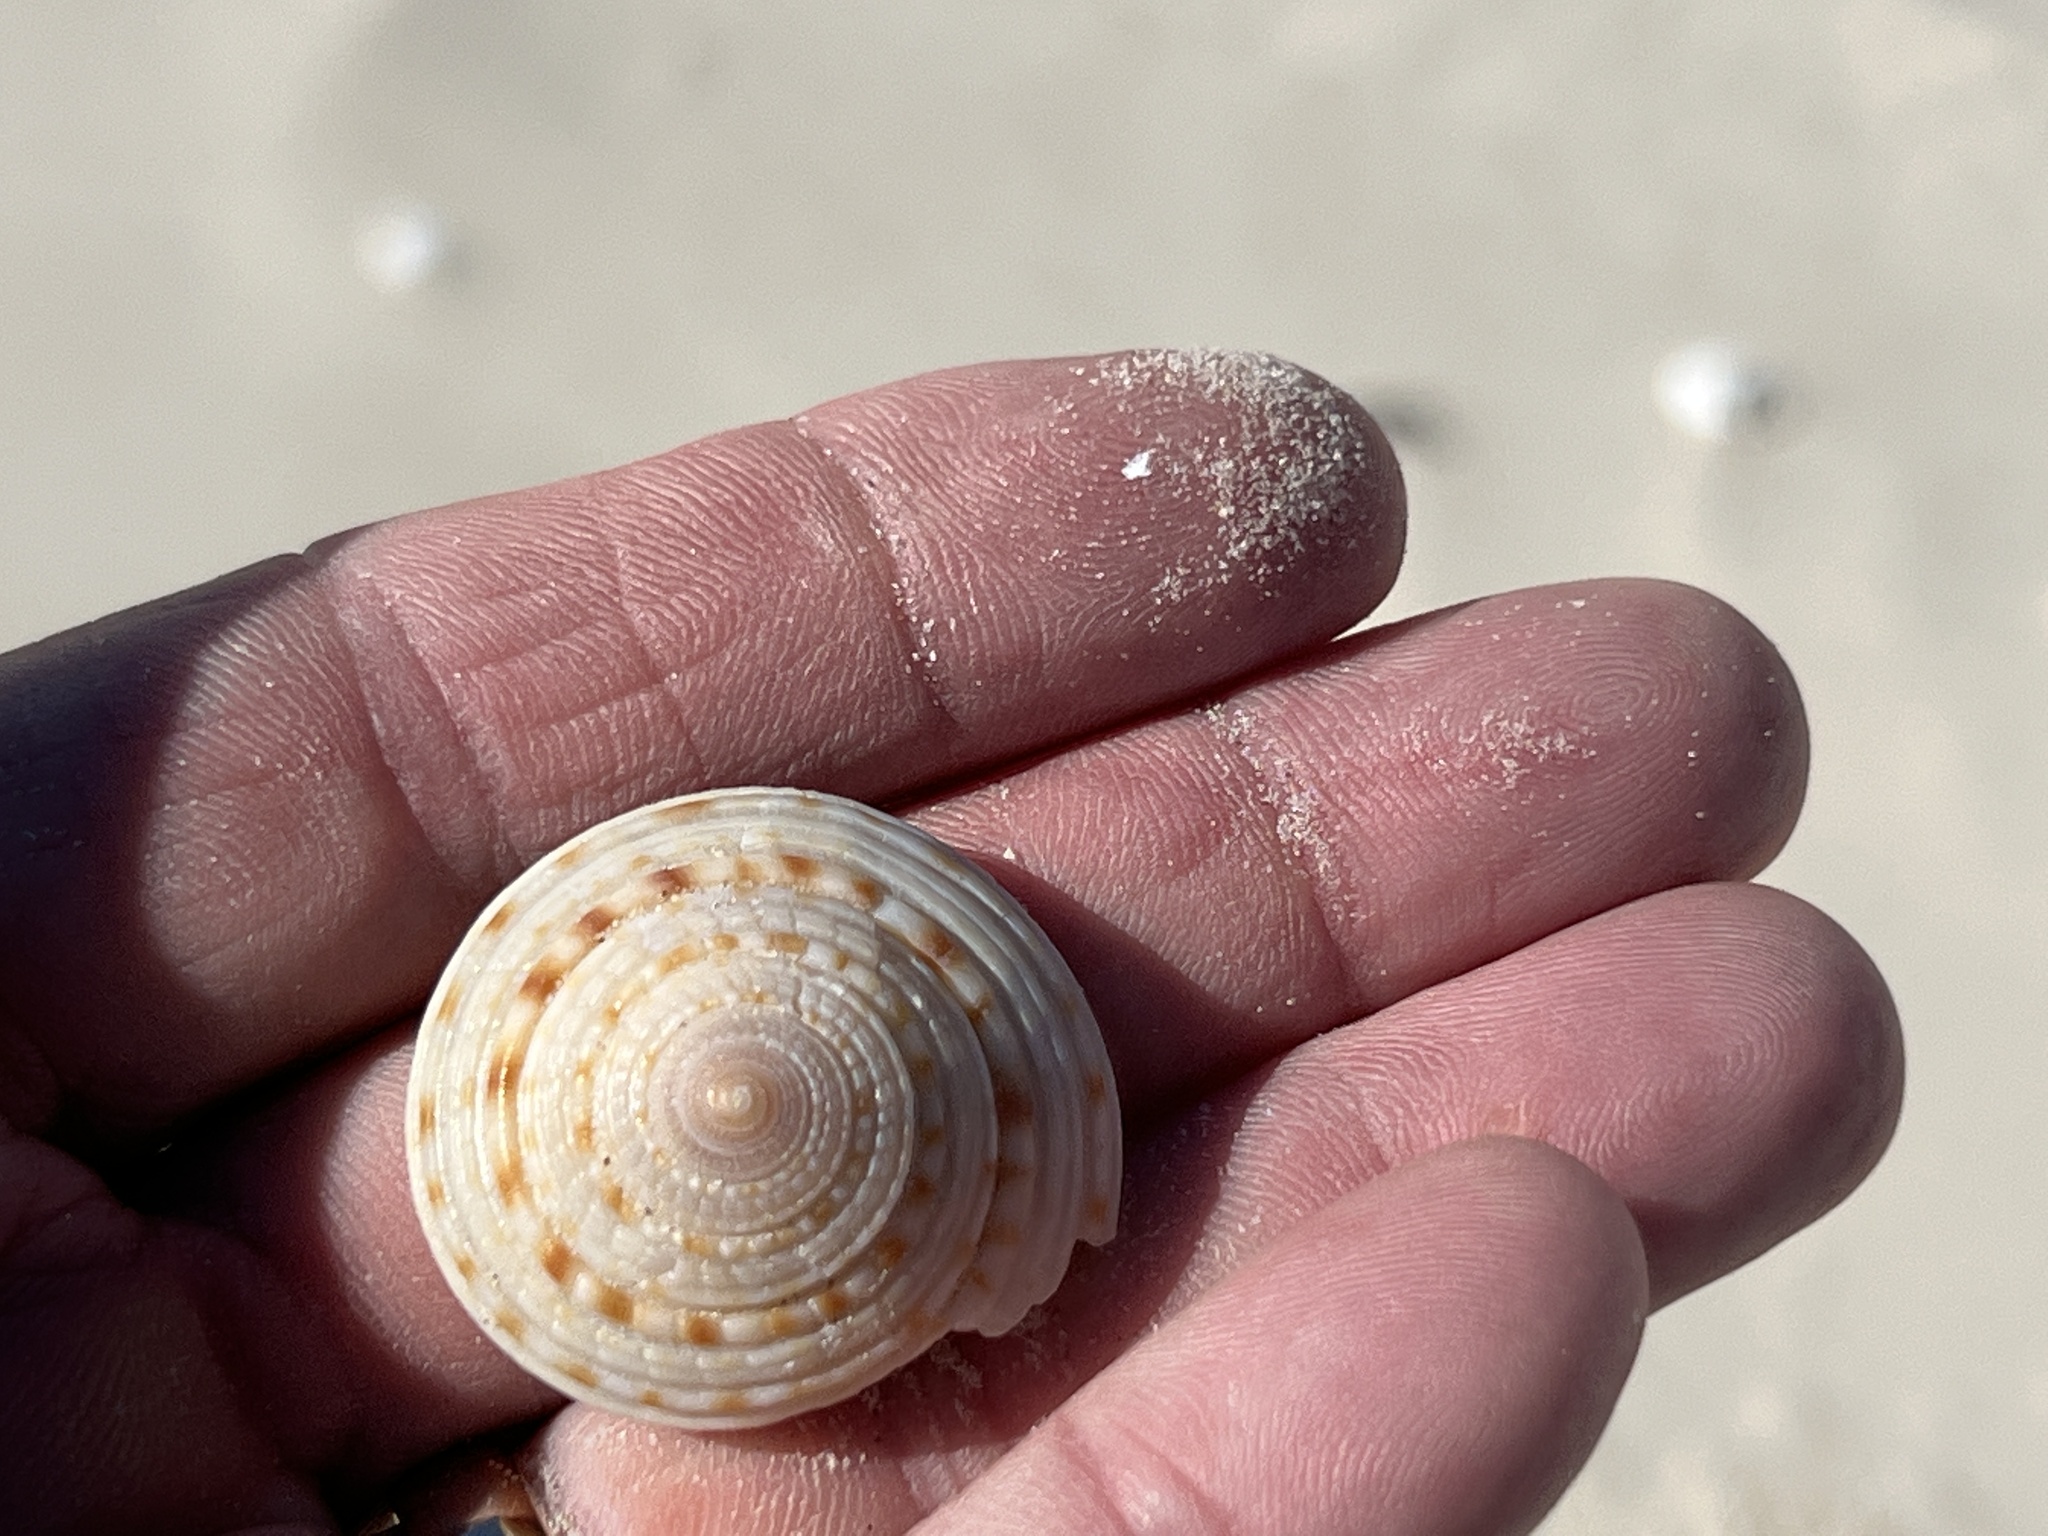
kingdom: Animalia
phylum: Mollusca
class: Gastropoda
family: Architectonicidae
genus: Architectonica
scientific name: Architectonica nobilis
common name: Common sundial
